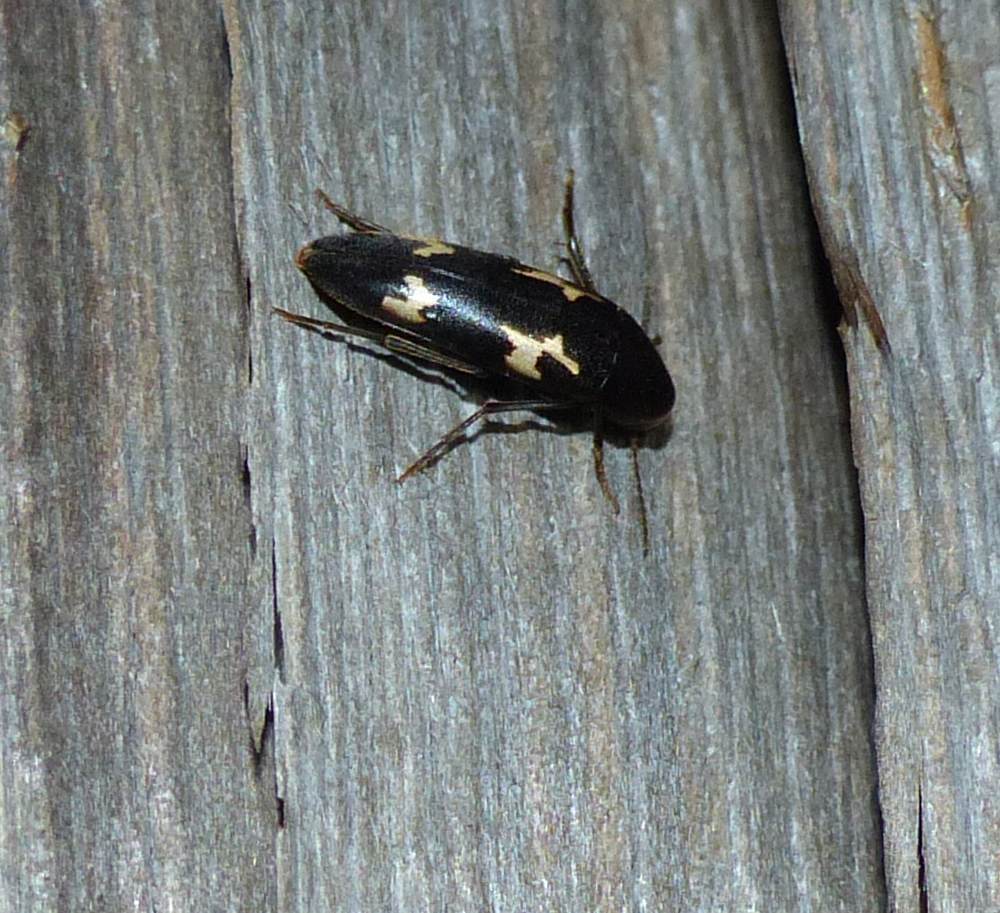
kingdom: Animalia
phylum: Arthropoda
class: Insecta
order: Coleoptera
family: Melandryidae
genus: Dircaea
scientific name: Dircaea liturata
